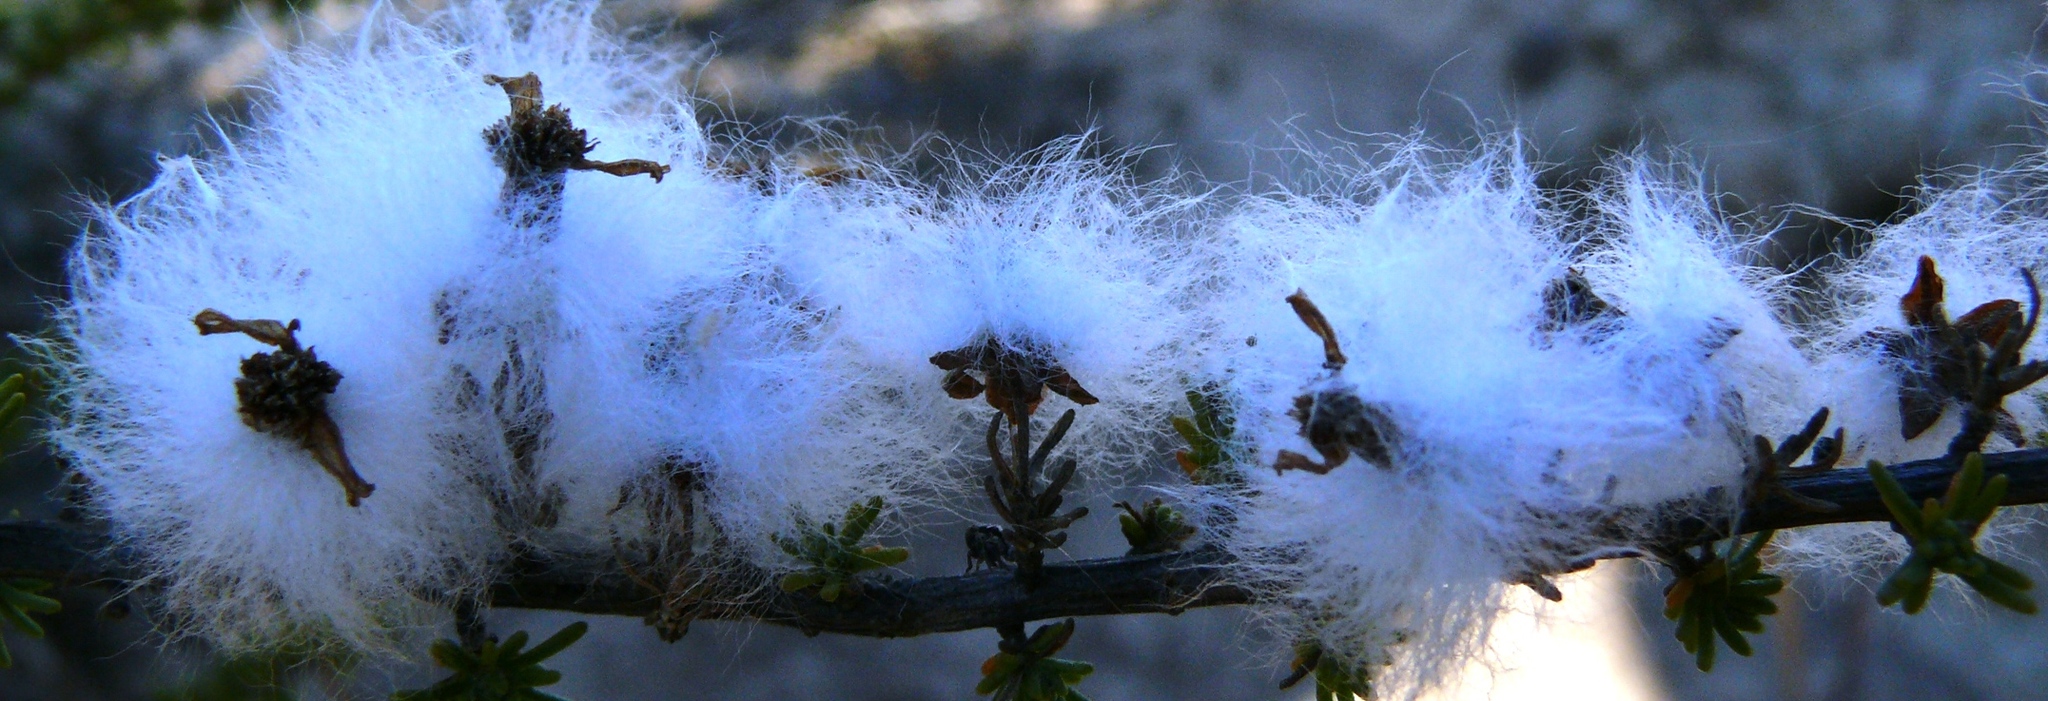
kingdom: Plantae
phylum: Tracheophyta
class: Magnoliopsida
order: Asterales
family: Asteraceae
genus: Eriocephalus
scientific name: Eriocephalus africanus
